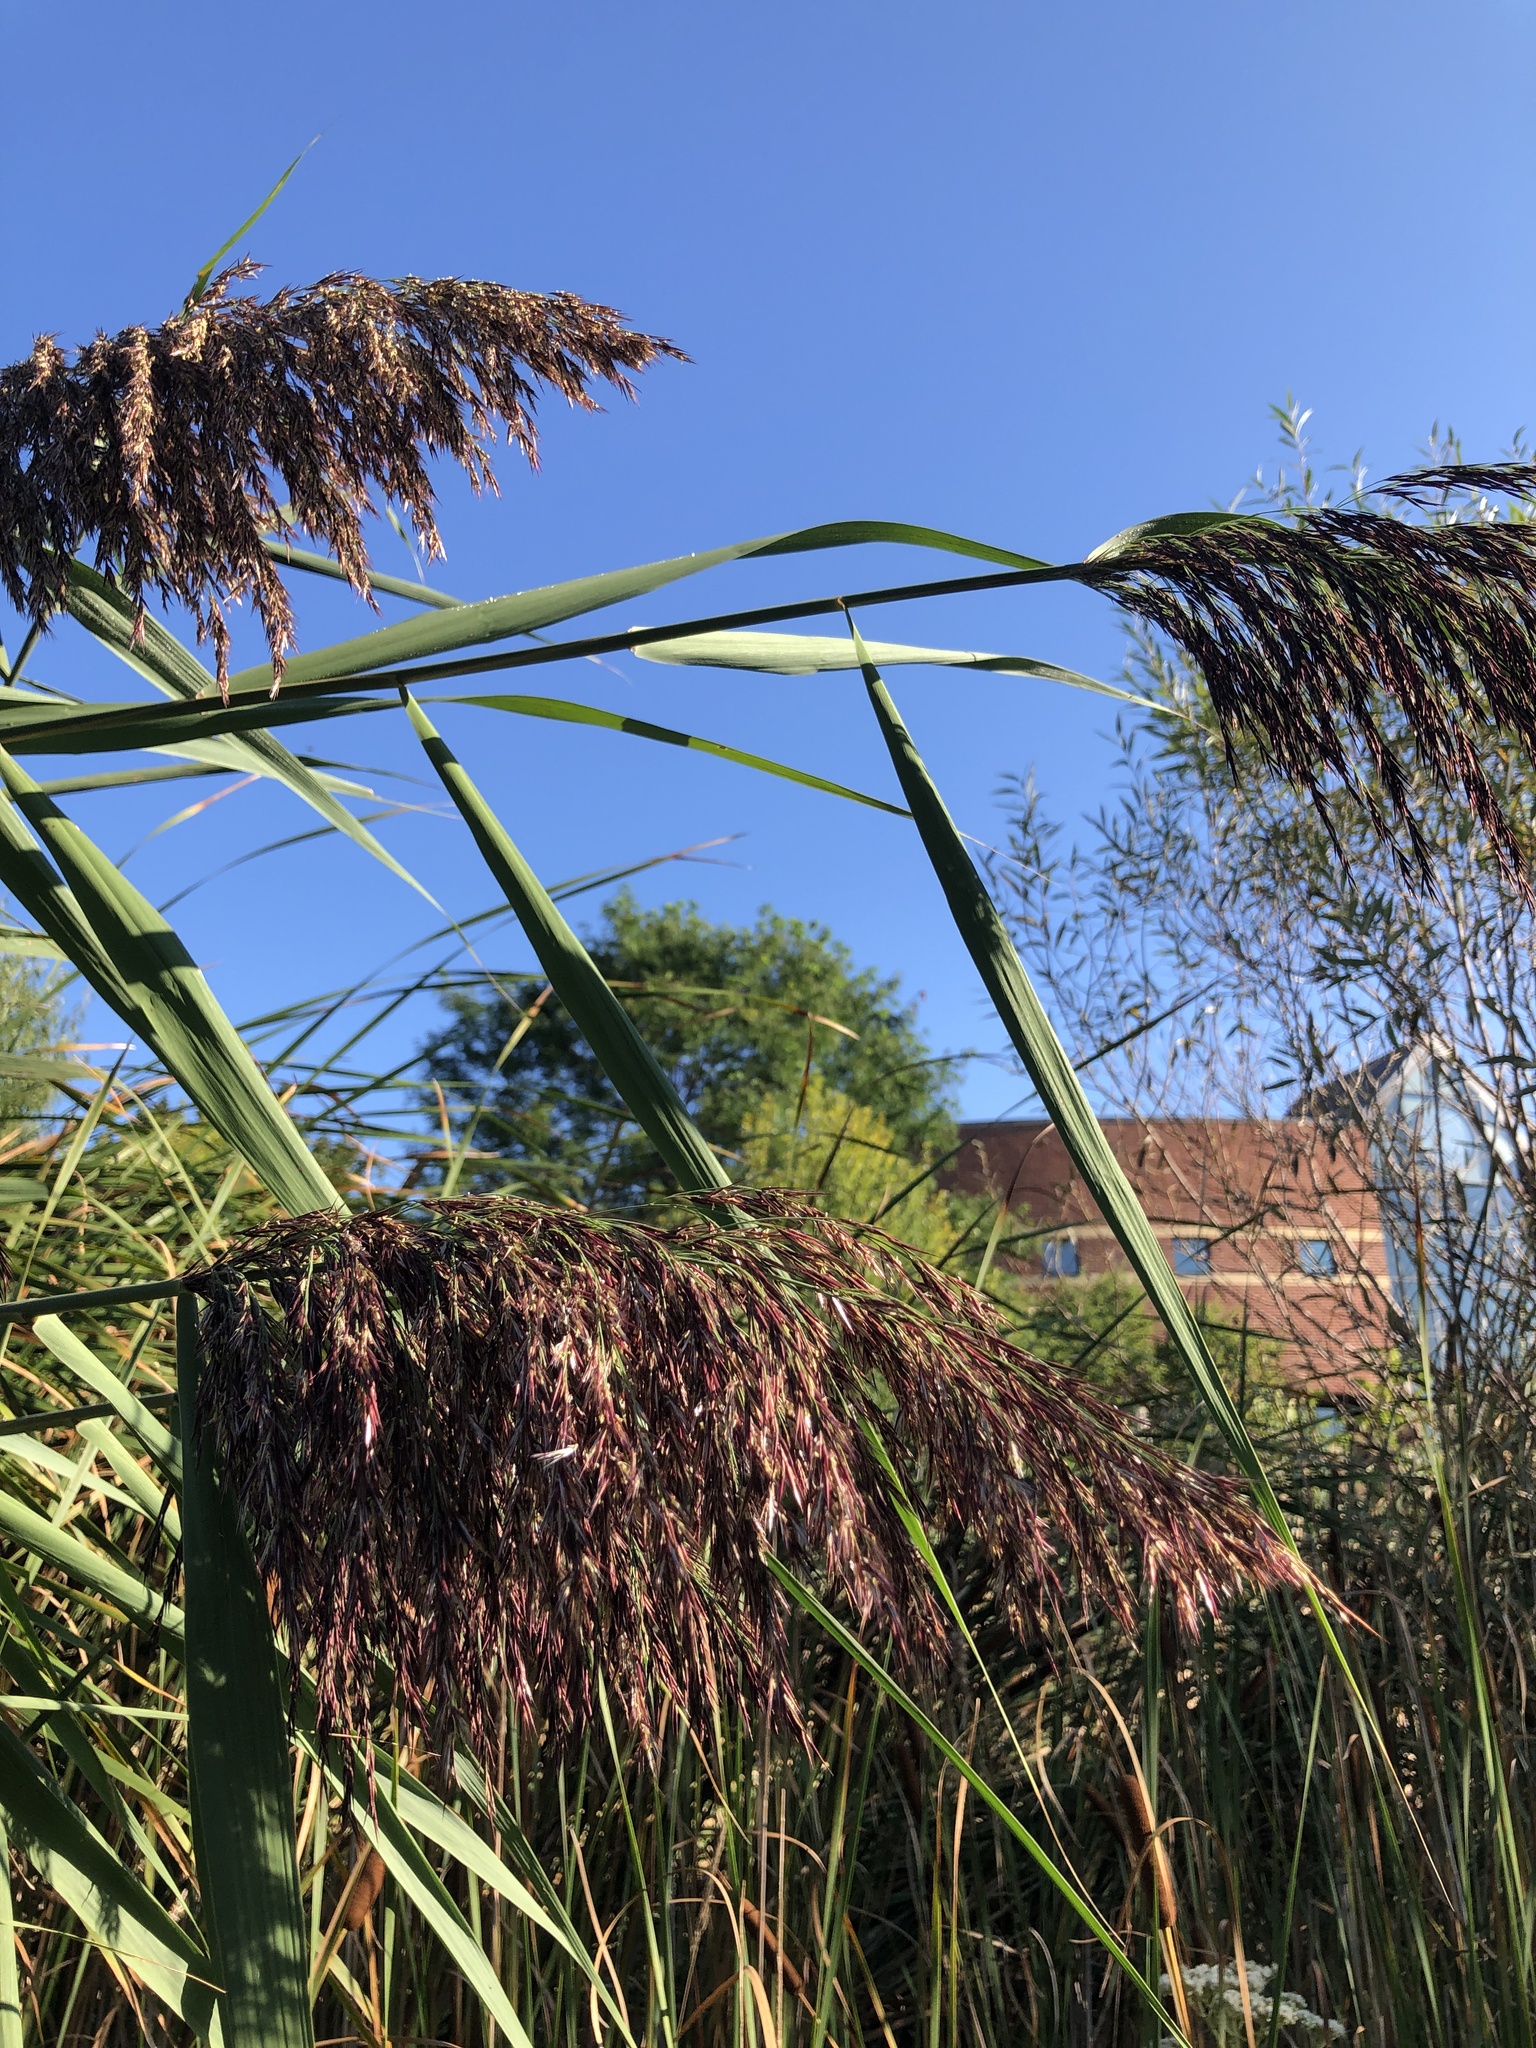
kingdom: Plantae
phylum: Tracheophyta
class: Liliopsida
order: Poales
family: Poaceae
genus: Phragmites
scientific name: Phragmites australis
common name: Common reed
